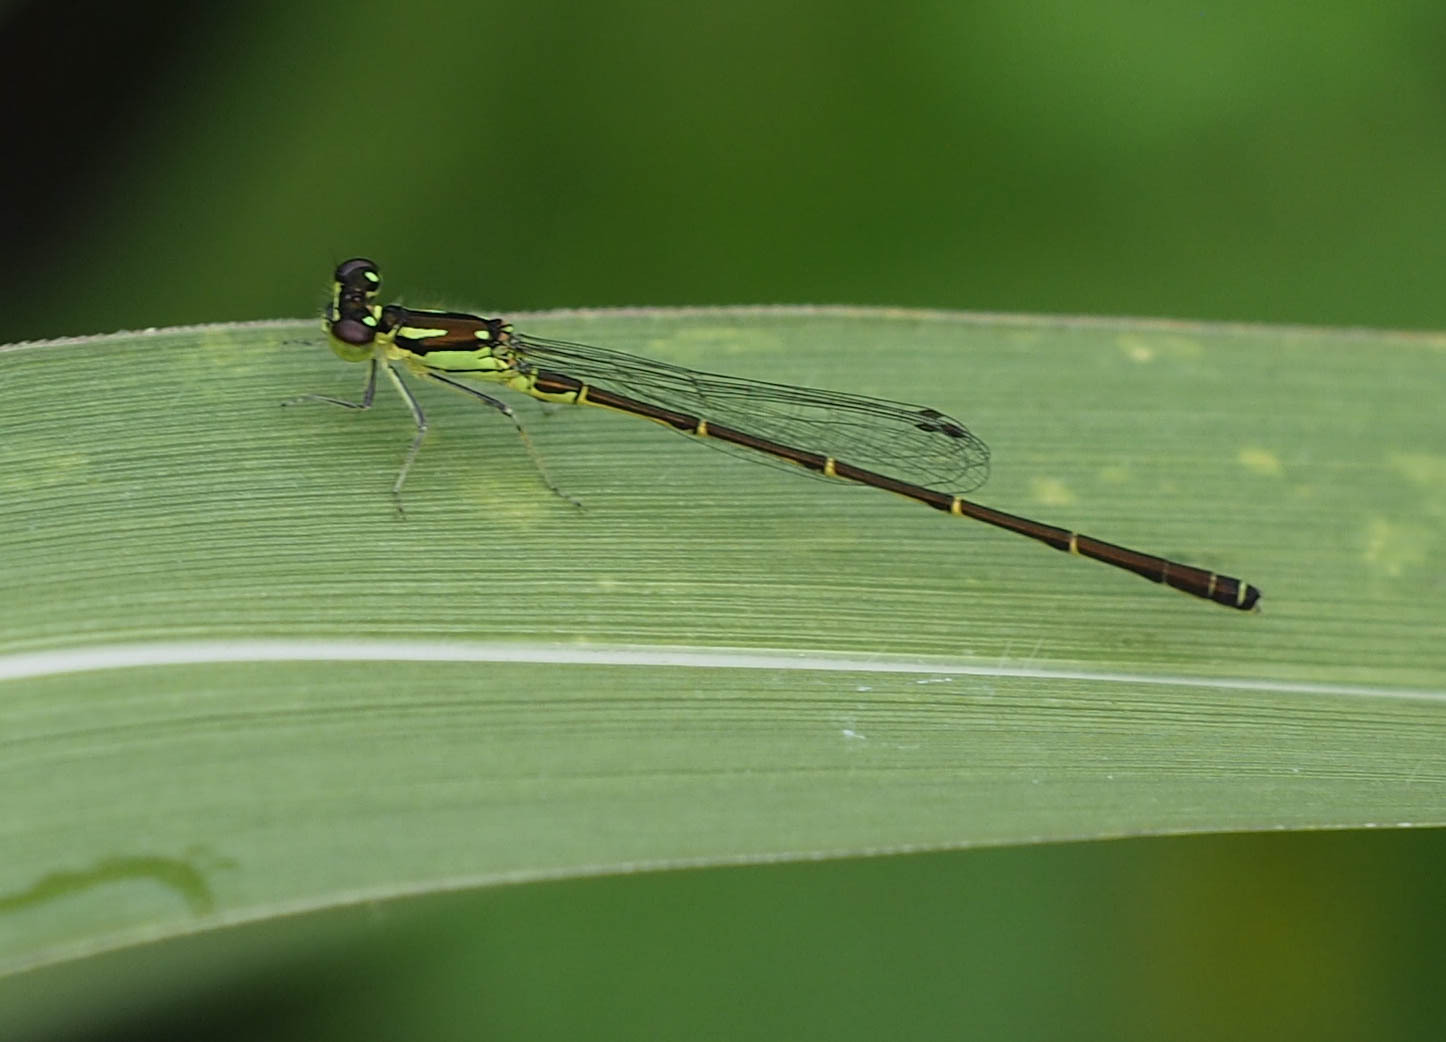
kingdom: Animalia
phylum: Arthropoda
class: Insecta
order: Odonata
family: Coenagrionidae
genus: Ischnura
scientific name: Ischnura posita
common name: Fragile forktail
